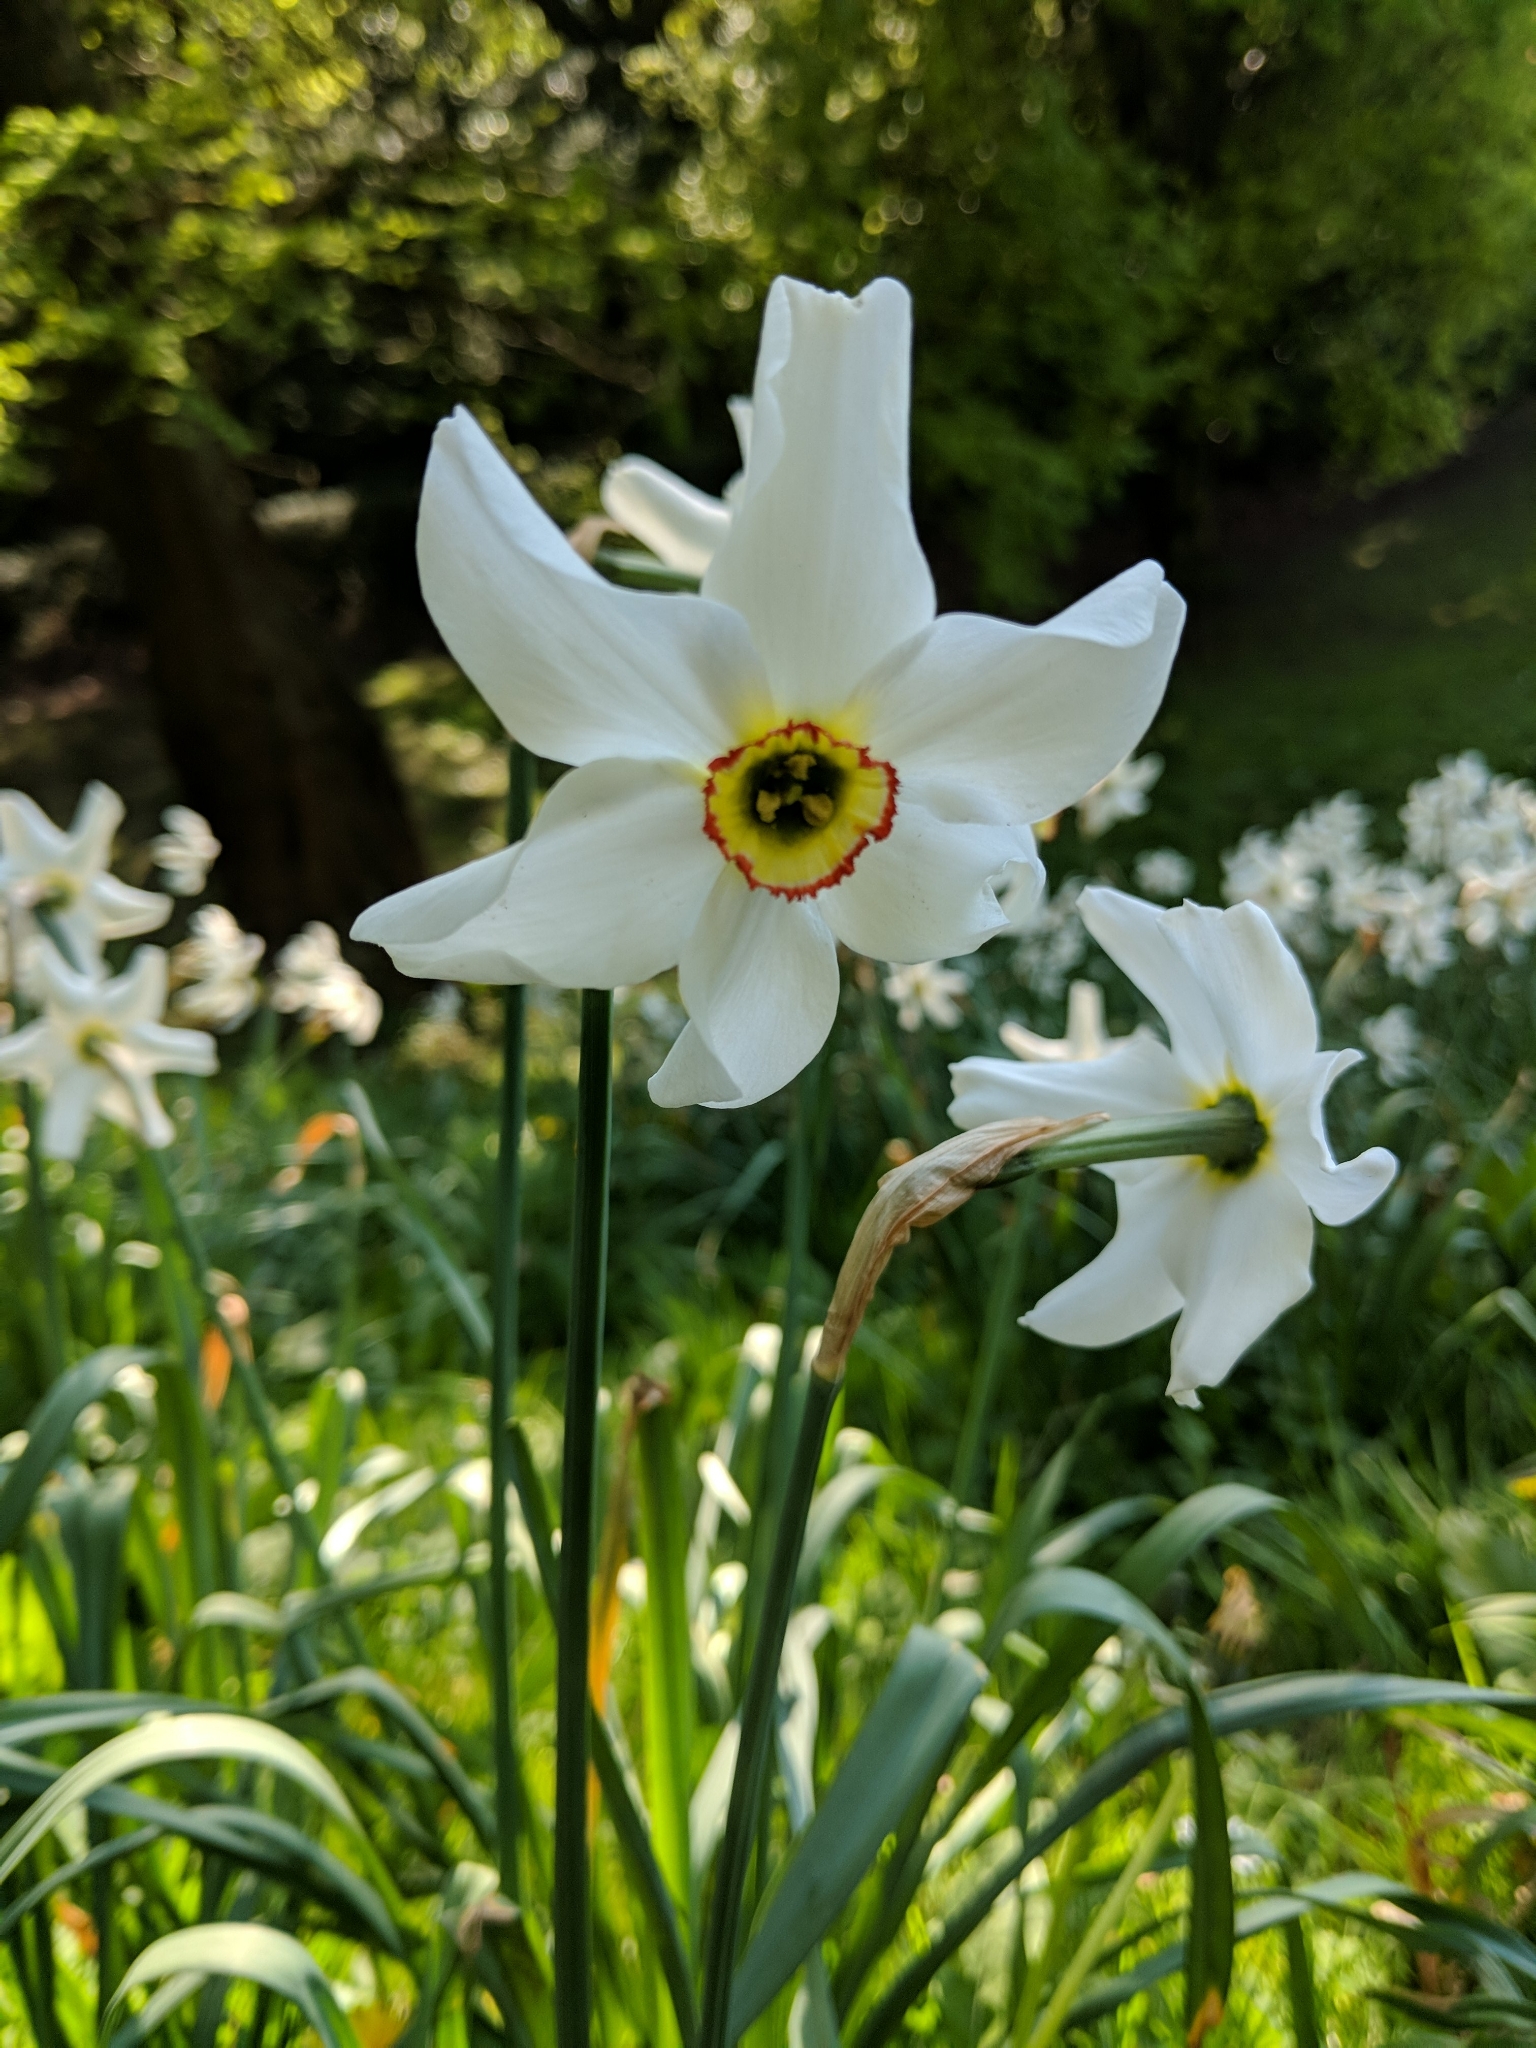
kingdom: Plantae
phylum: Tracheophyta
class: Liliopsida
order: Asparagales
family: Amaryllidaceae
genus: Narcissus
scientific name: Narcissus poeticus
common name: Pheasant's-eye daffodil
